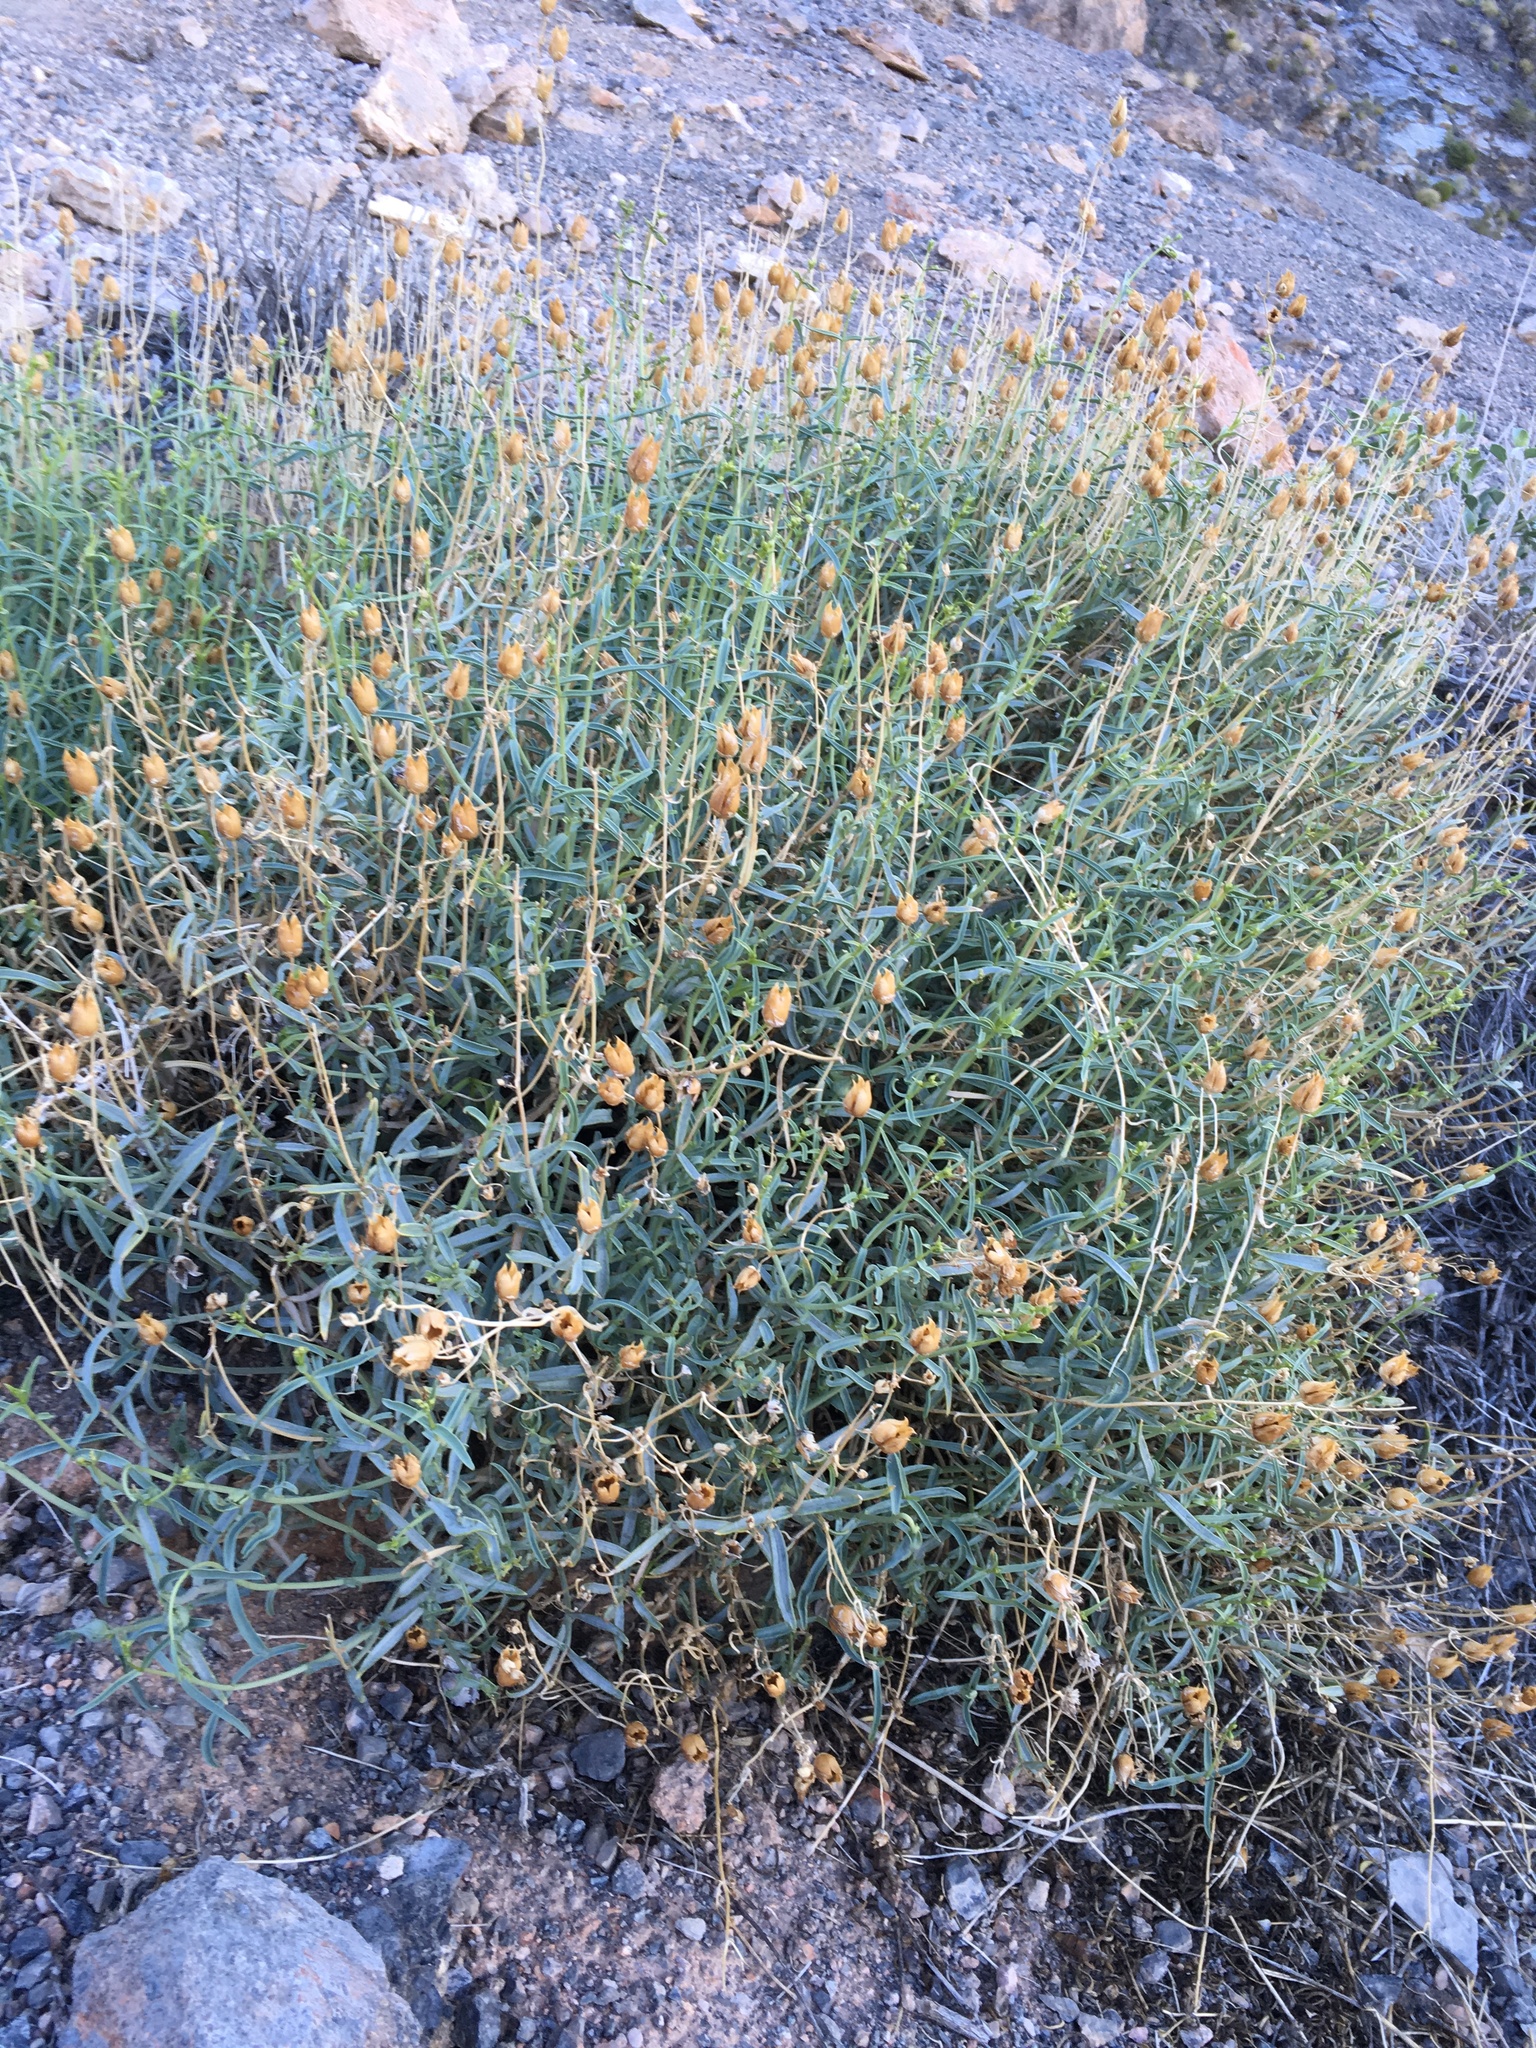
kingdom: Plantae
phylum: Tracheophyta
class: Magnoliopsida
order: Lamiales
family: Plantaginaceae
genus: Penstemon
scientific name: Penstemon fruticiformis
